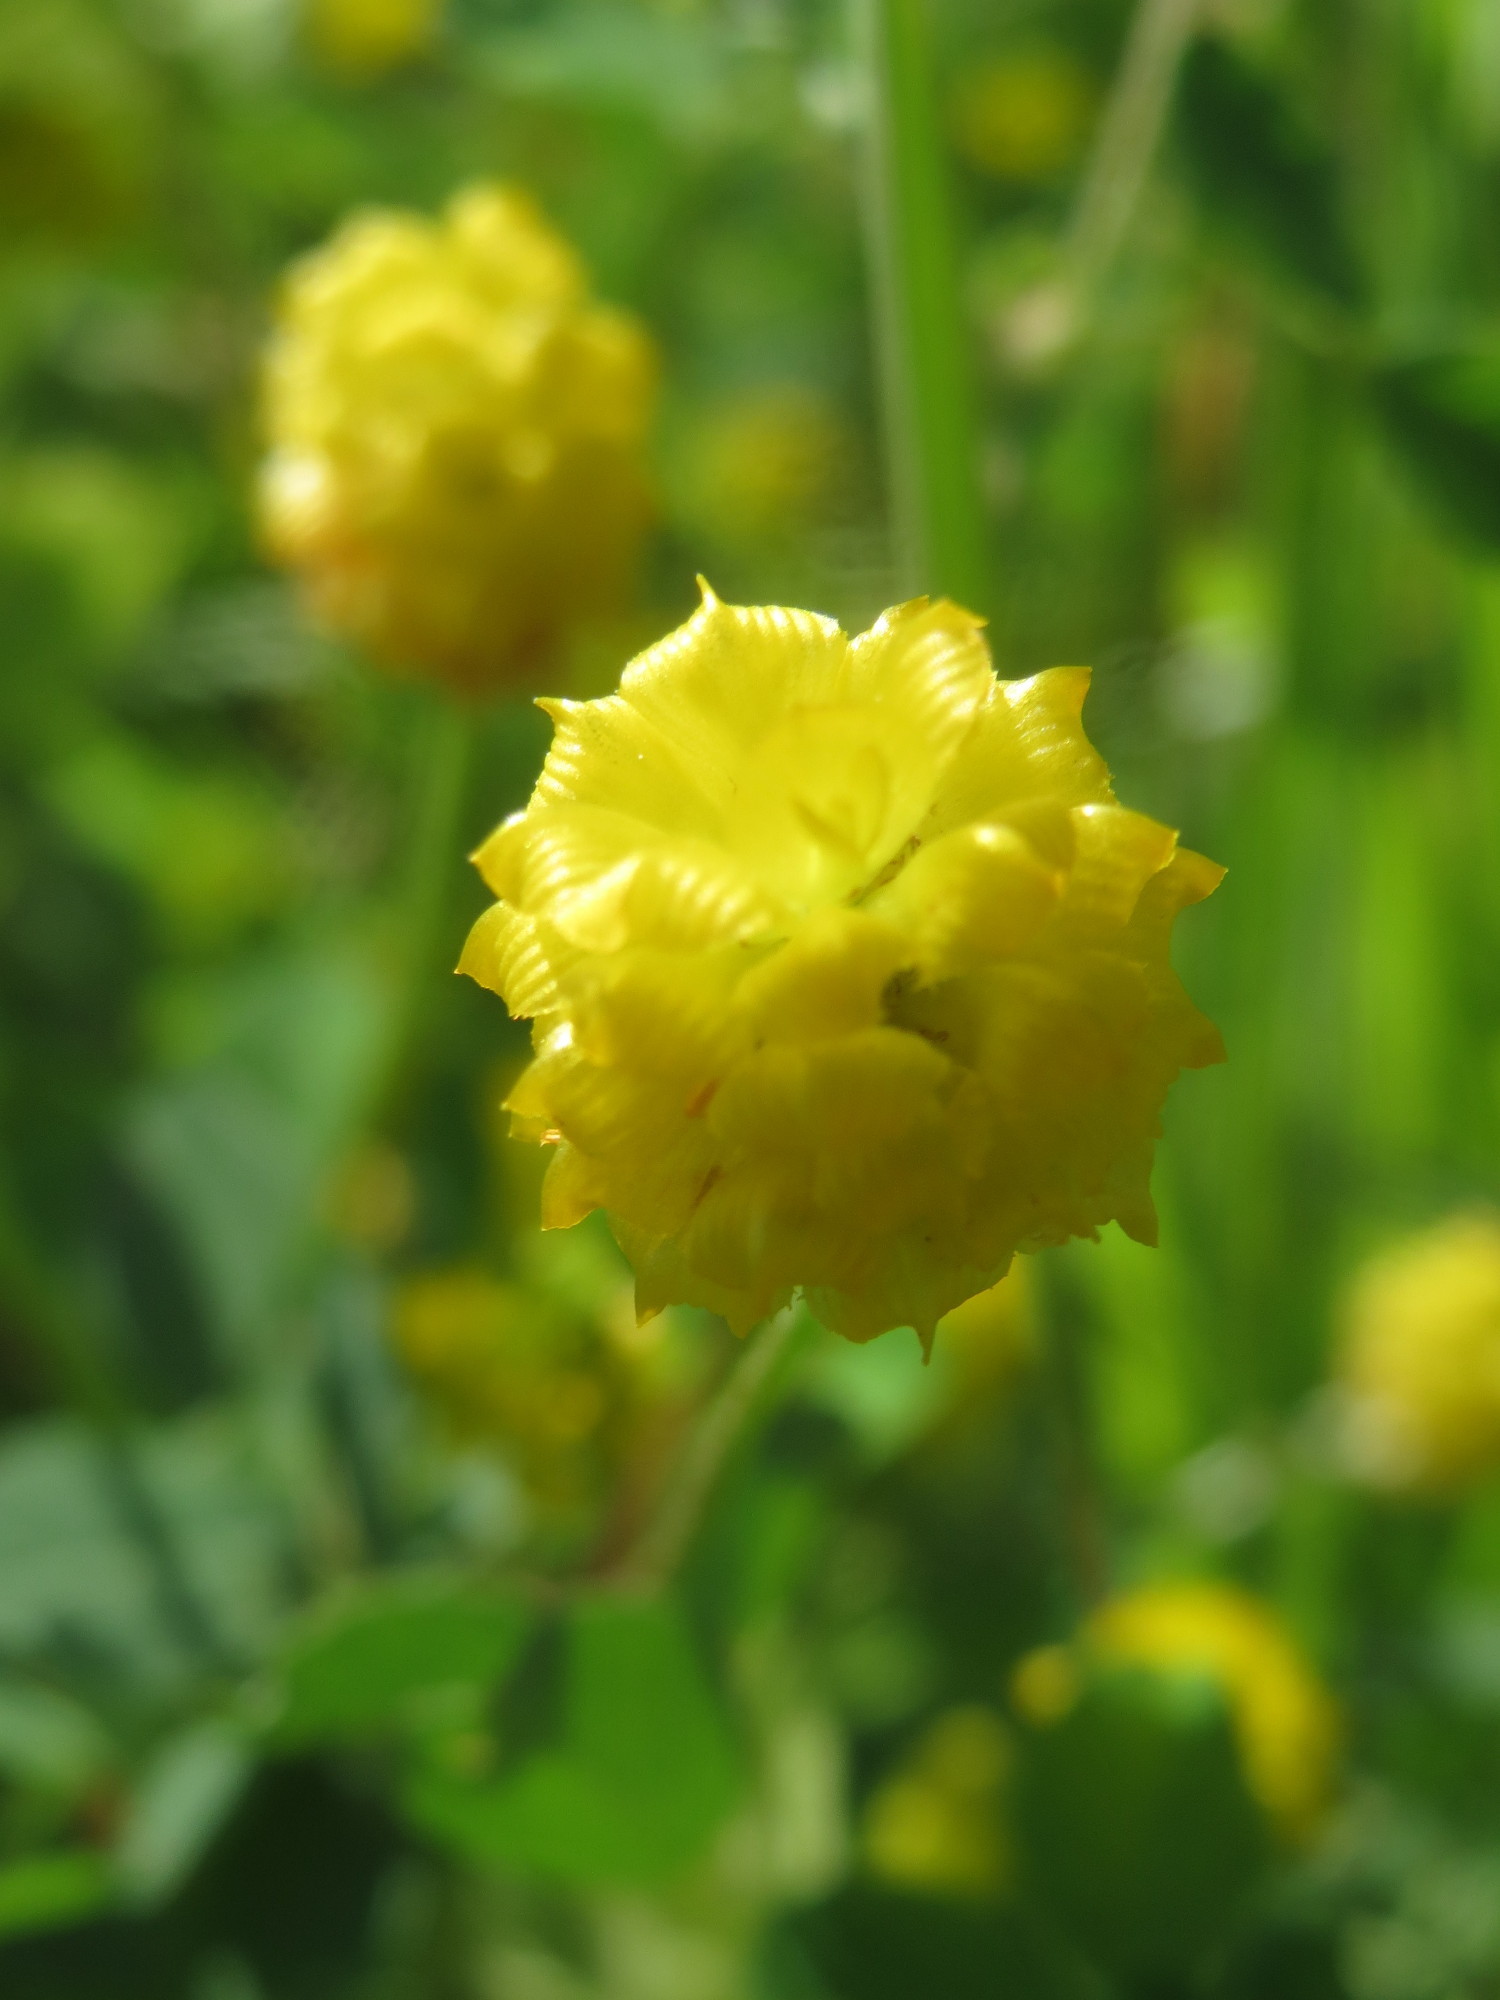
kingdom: Plantae
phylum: Tracheophyta
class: Magnoliopsida
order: Fabales
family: Fabaceae
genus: Trifolium
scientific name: Trifolium campestre
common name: Field clover
